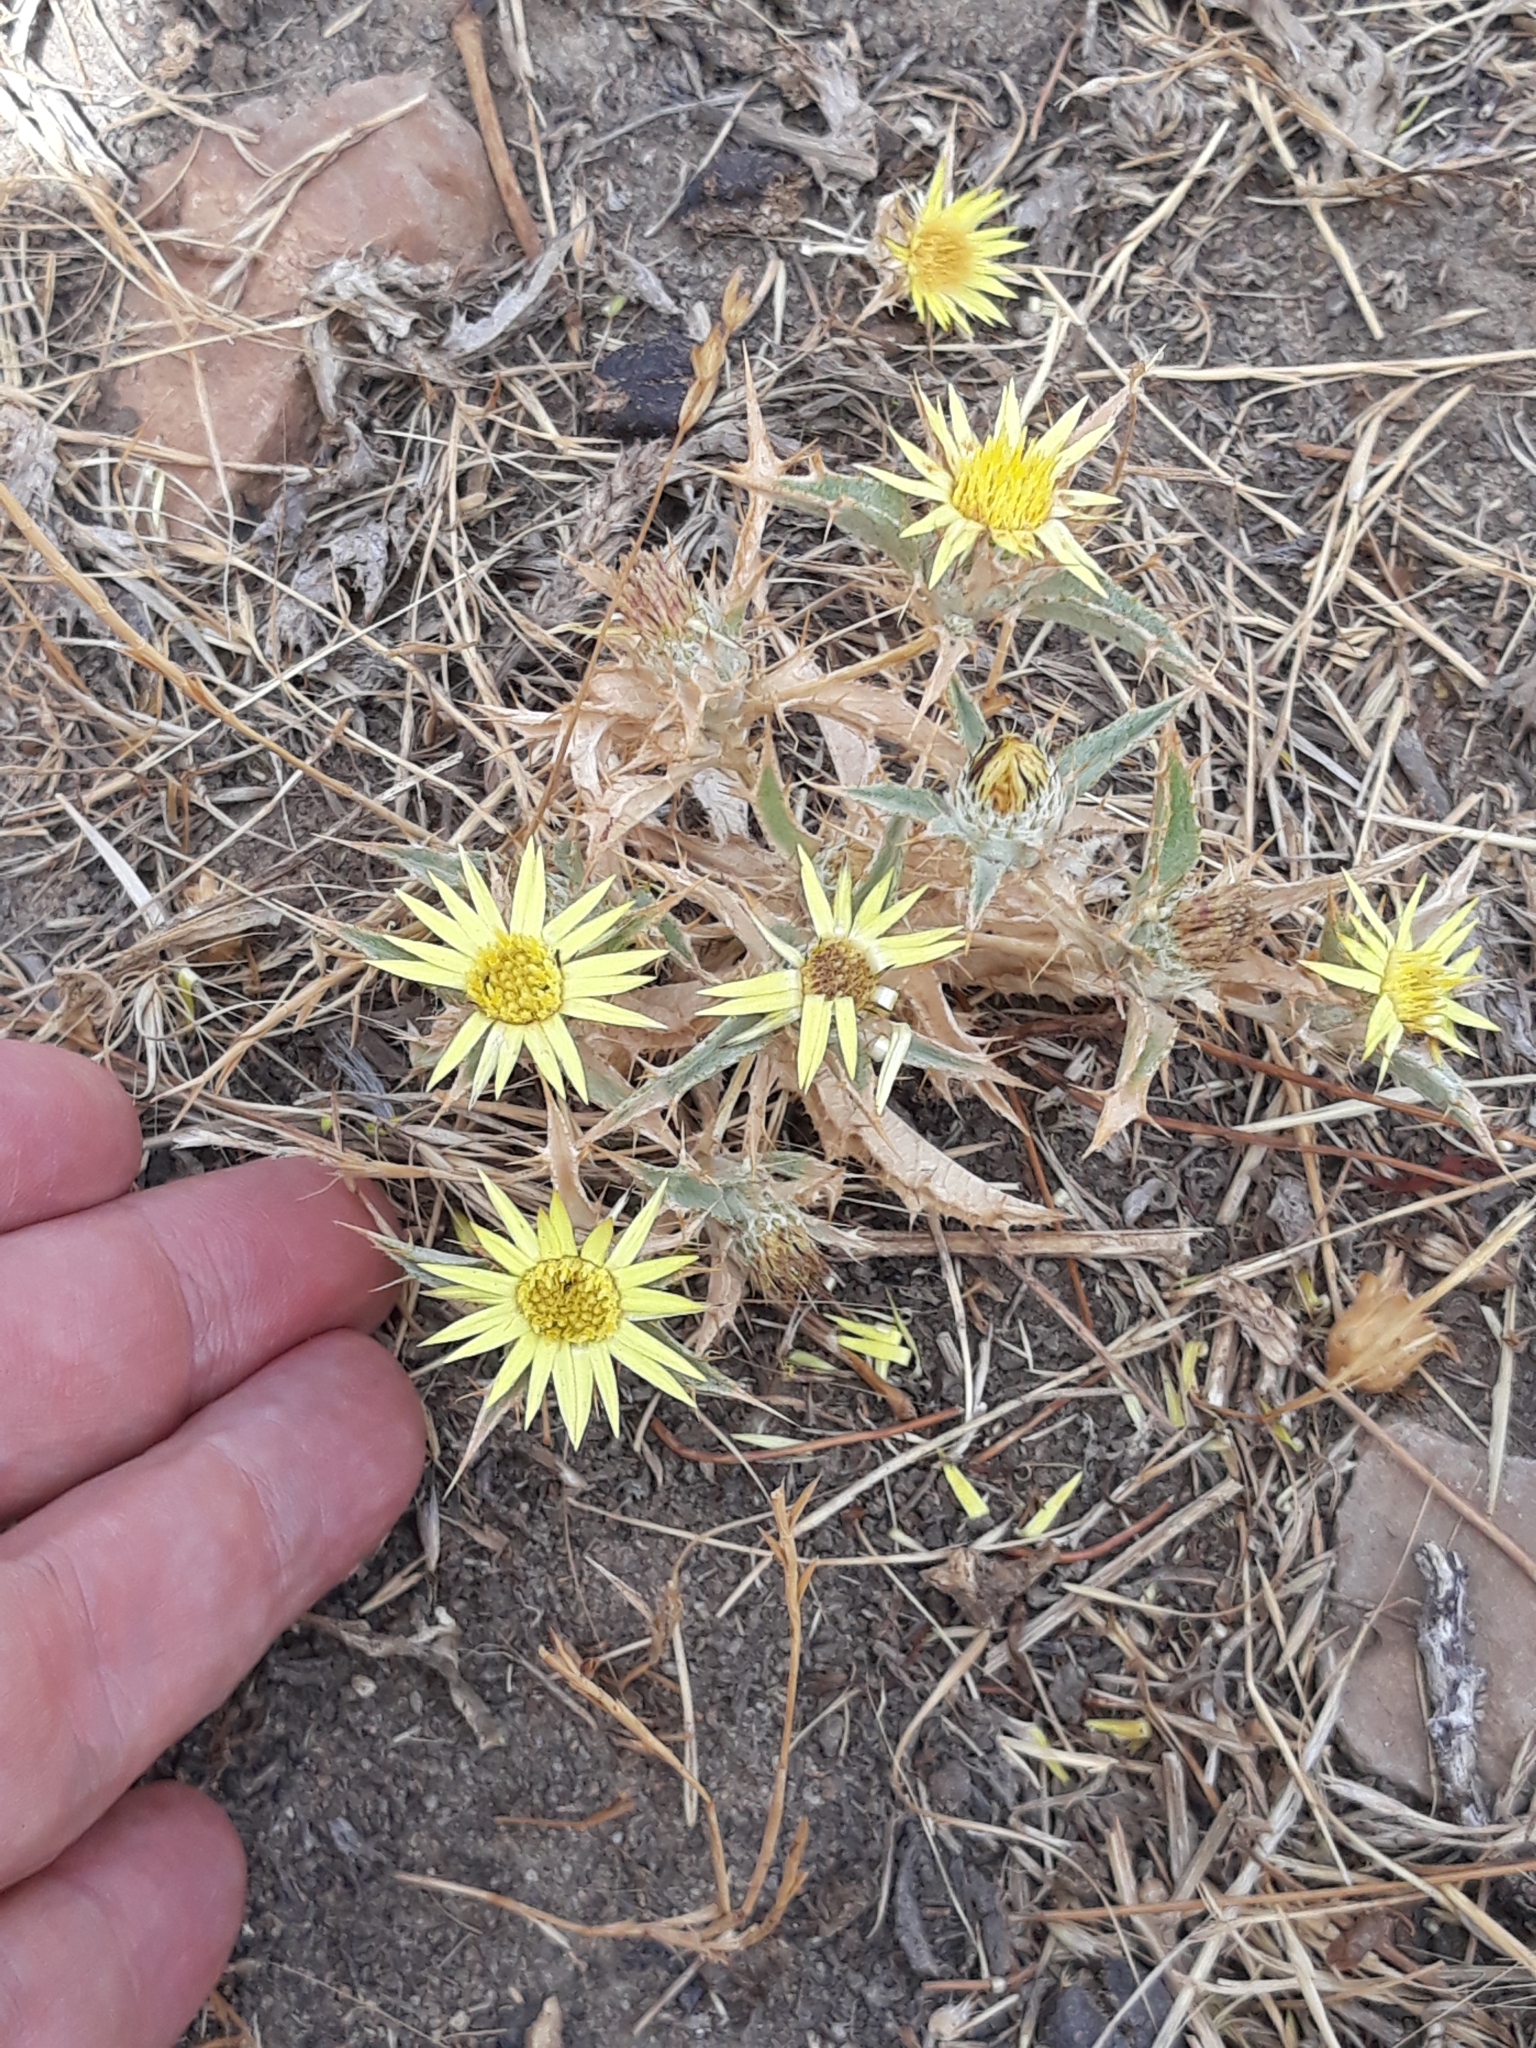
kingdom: Plantae
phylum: Tracheophyta
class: Magnoliopsida
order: Asterales
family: Asteraceae
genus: Carlina
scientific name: Carlina racemosa
